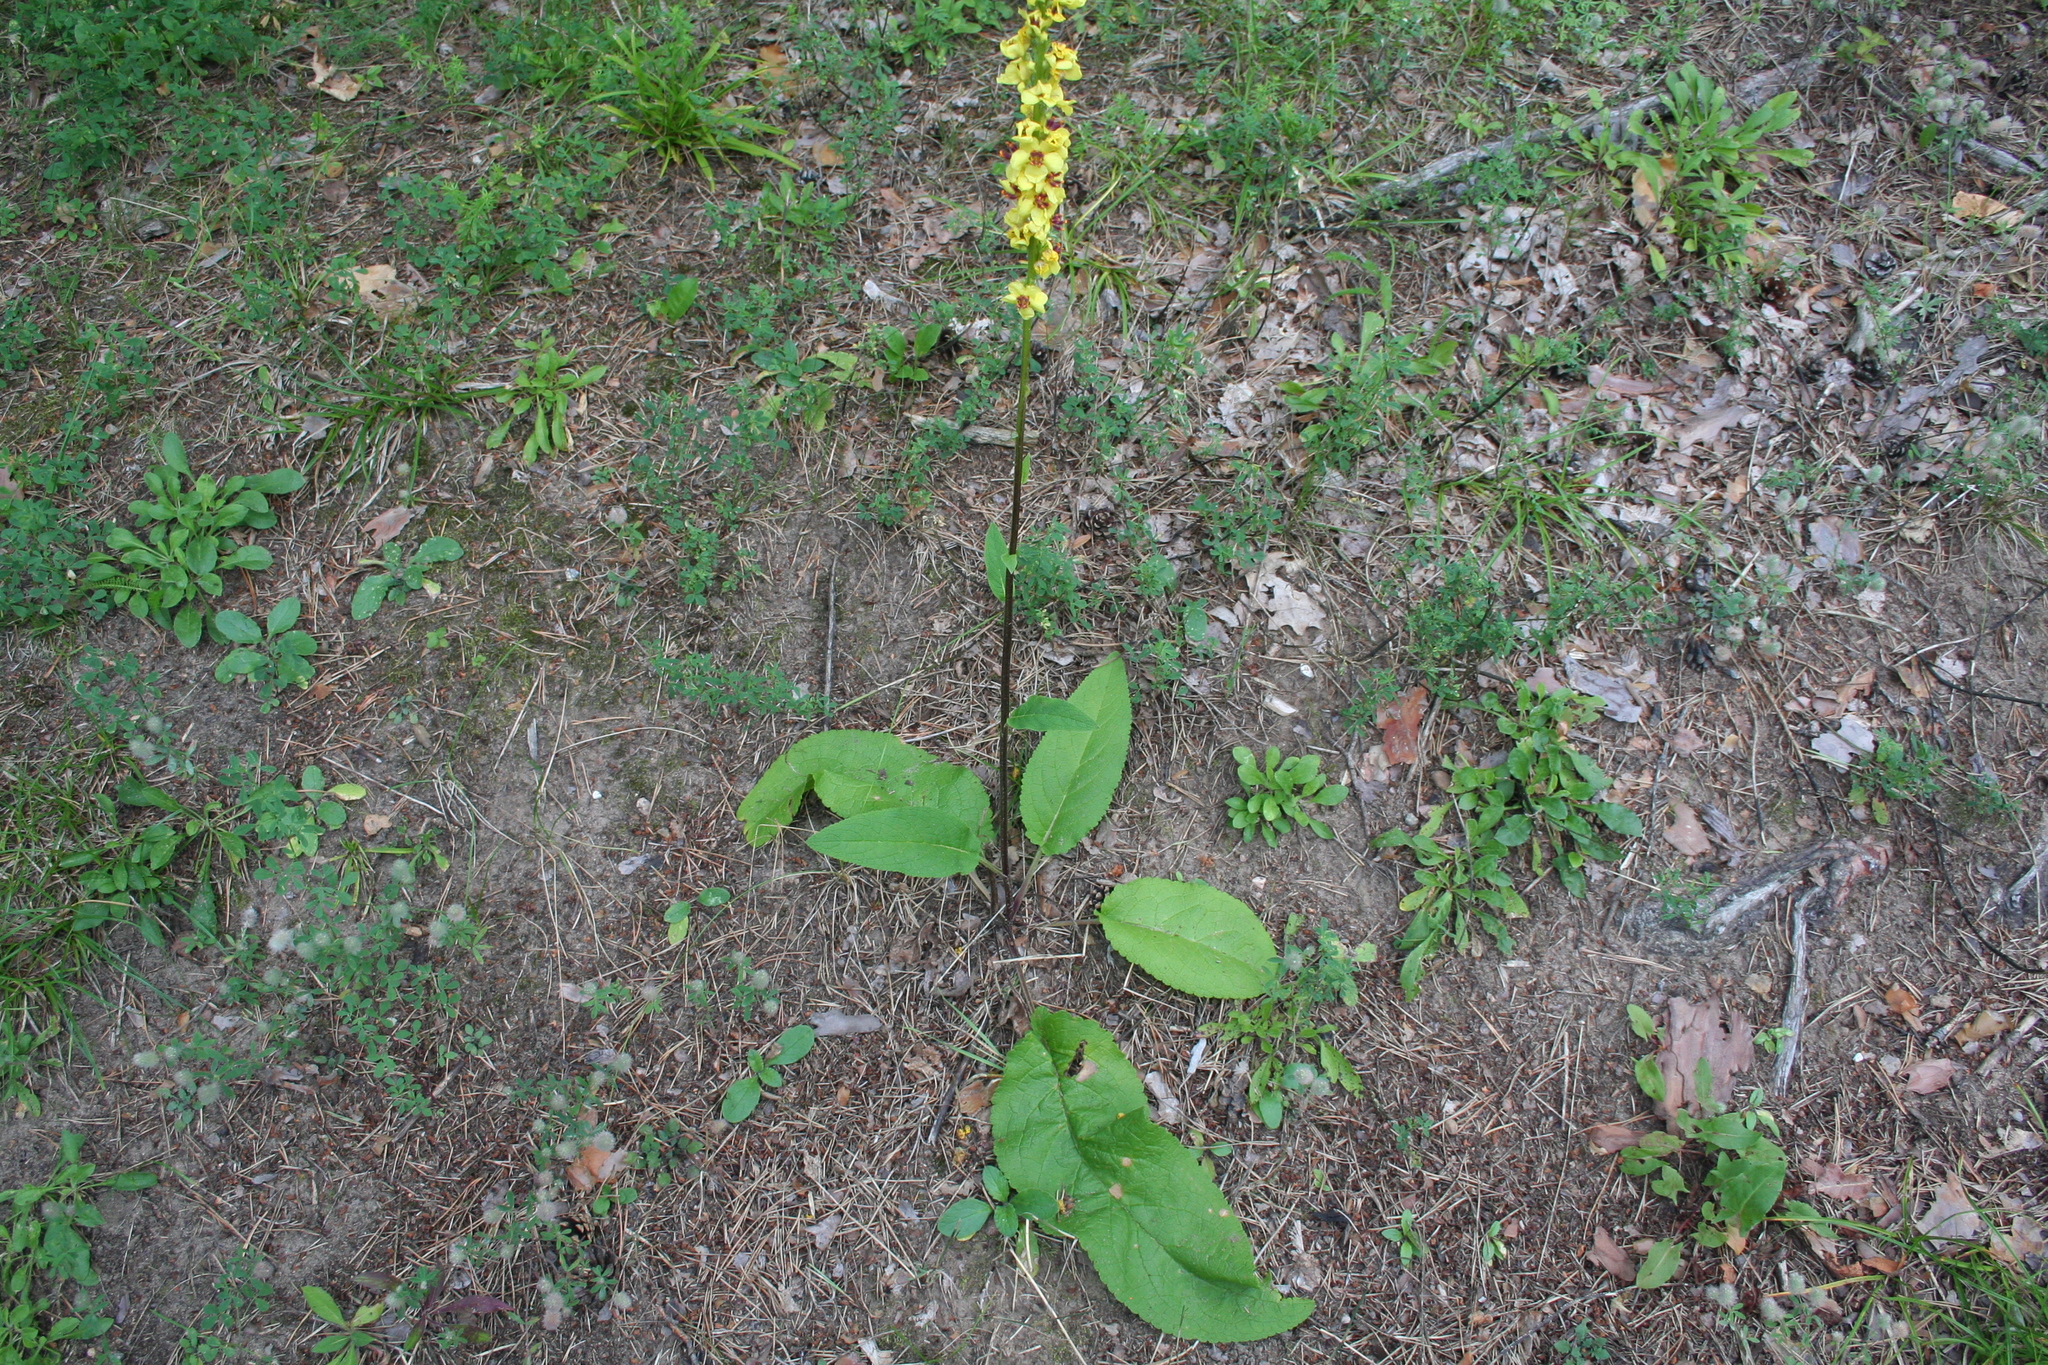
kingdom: Plantae
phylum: Tracheophyta
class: Magnoliopsida
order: Lamiales
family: Scrophulariaceae
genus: Verbascum
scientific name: Verbascum nigrum
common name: Dark mullein
